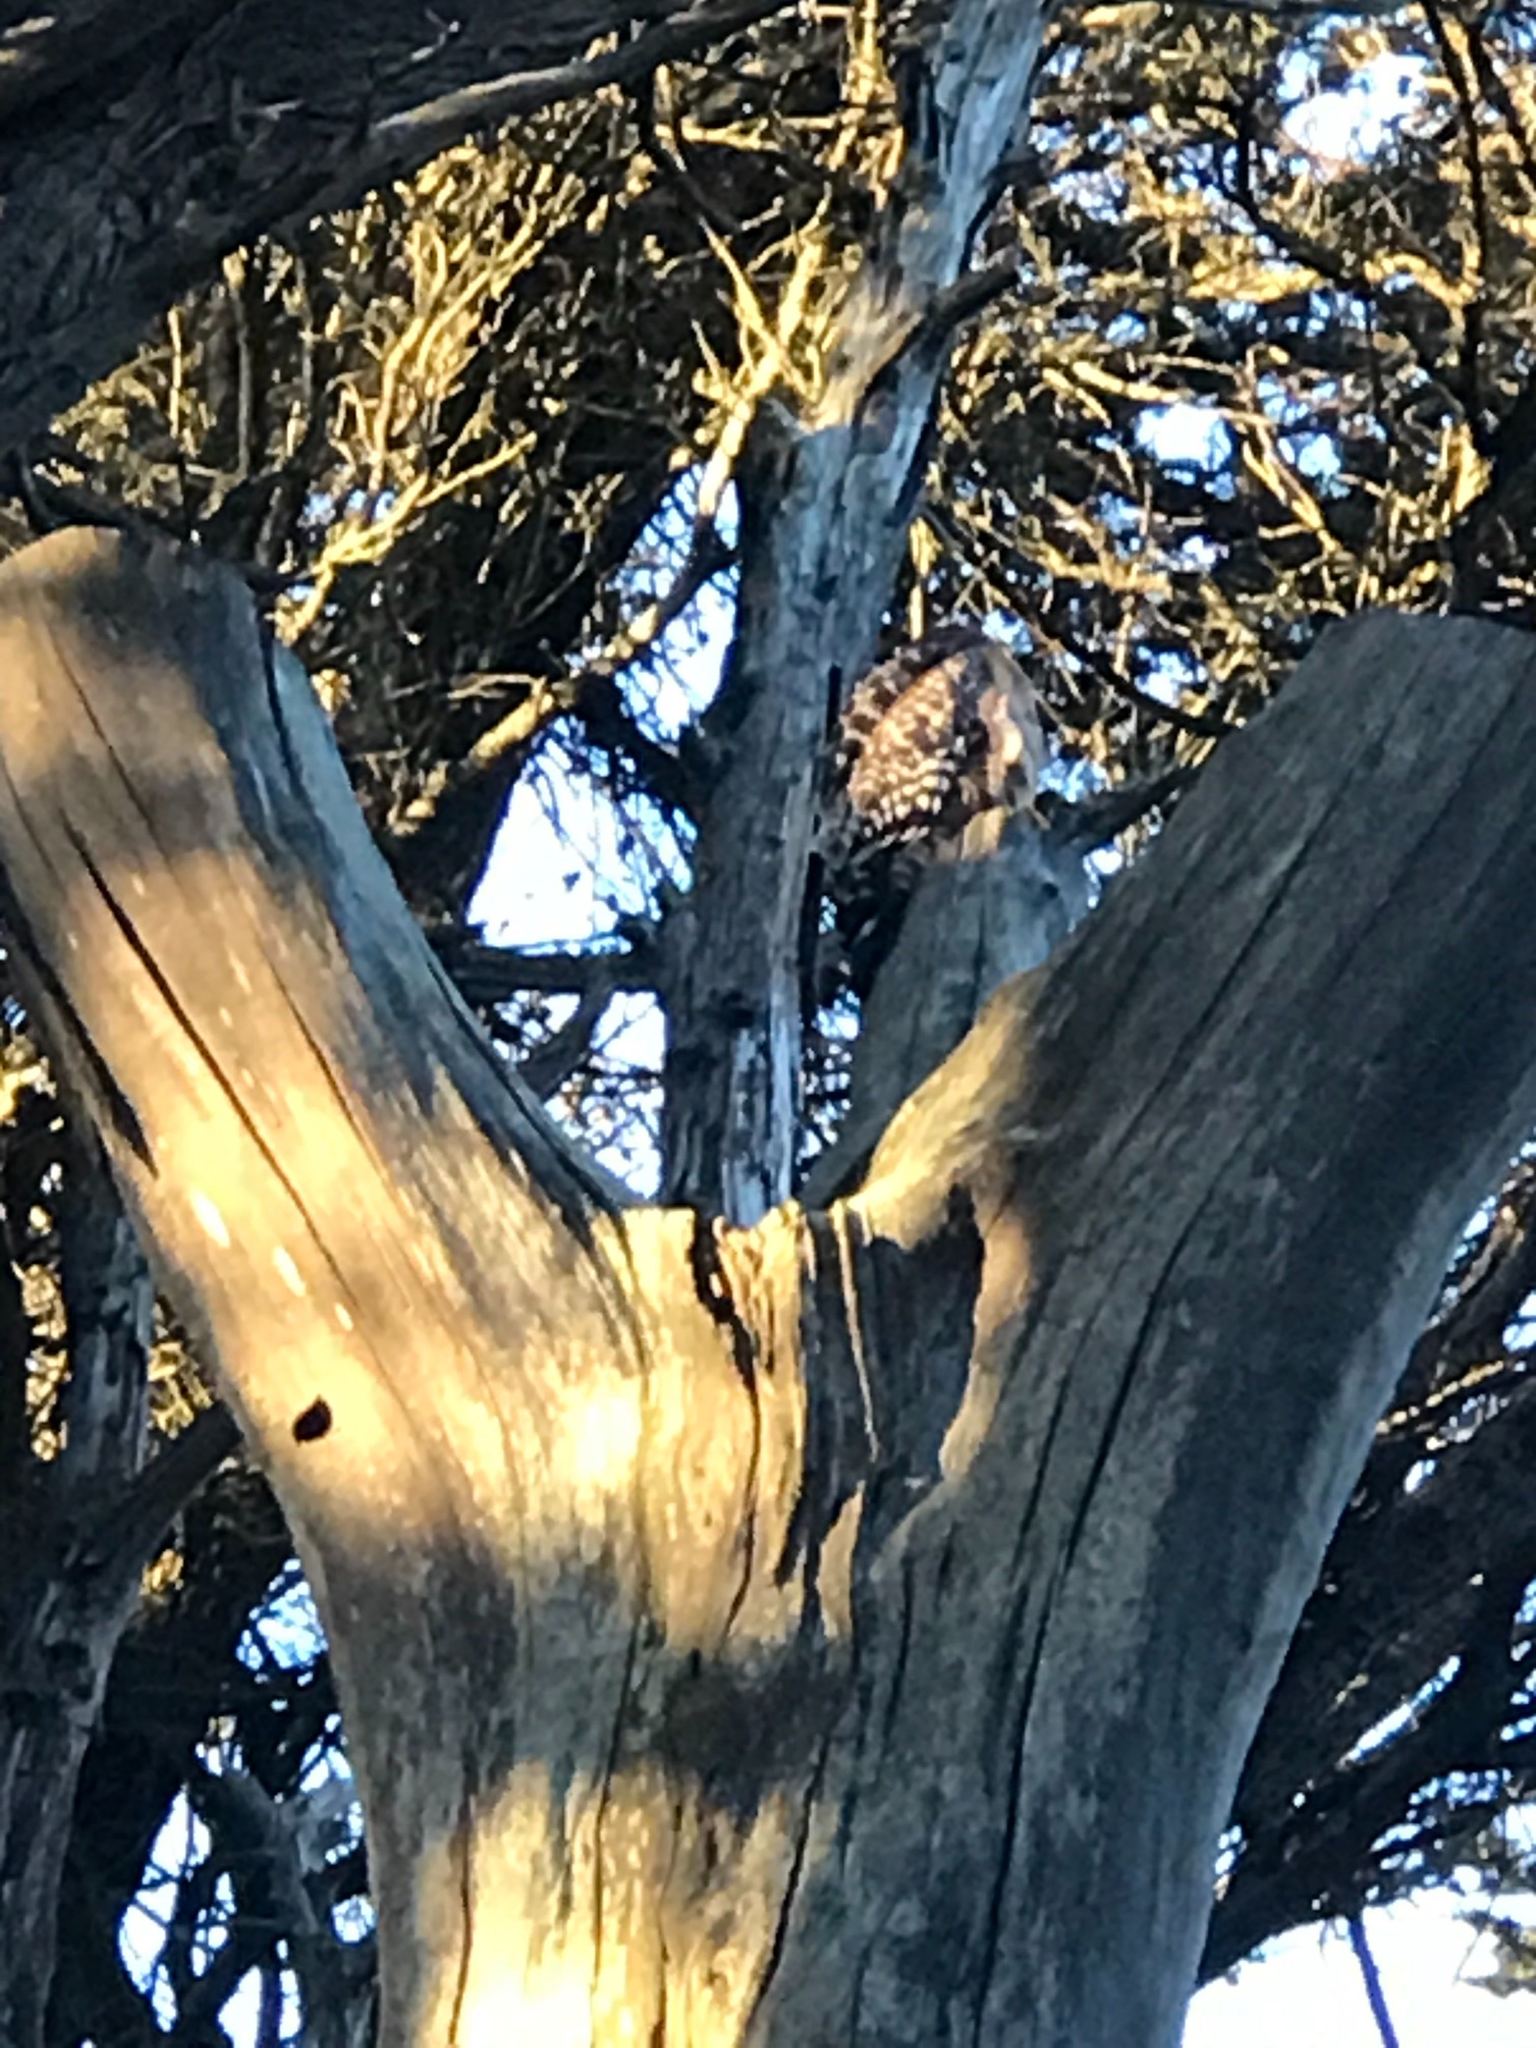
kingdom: Animalia
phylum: Chordata
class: Aves
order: Accipitriformes
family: Accipitridae
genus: Buteo
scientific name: Buteo lineatus
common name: Red-shouldered hawk
